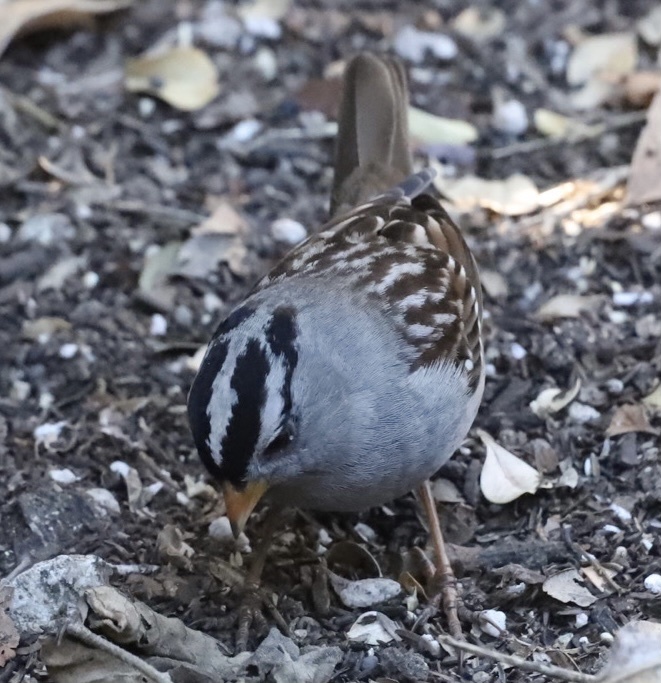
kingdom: Animalia
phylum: Chordata
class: Aves
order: Passeriformes
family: Passerellidae
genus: Zonotrichia
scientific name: Zonotrichia leucophrys
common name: White-crowned sparrow
